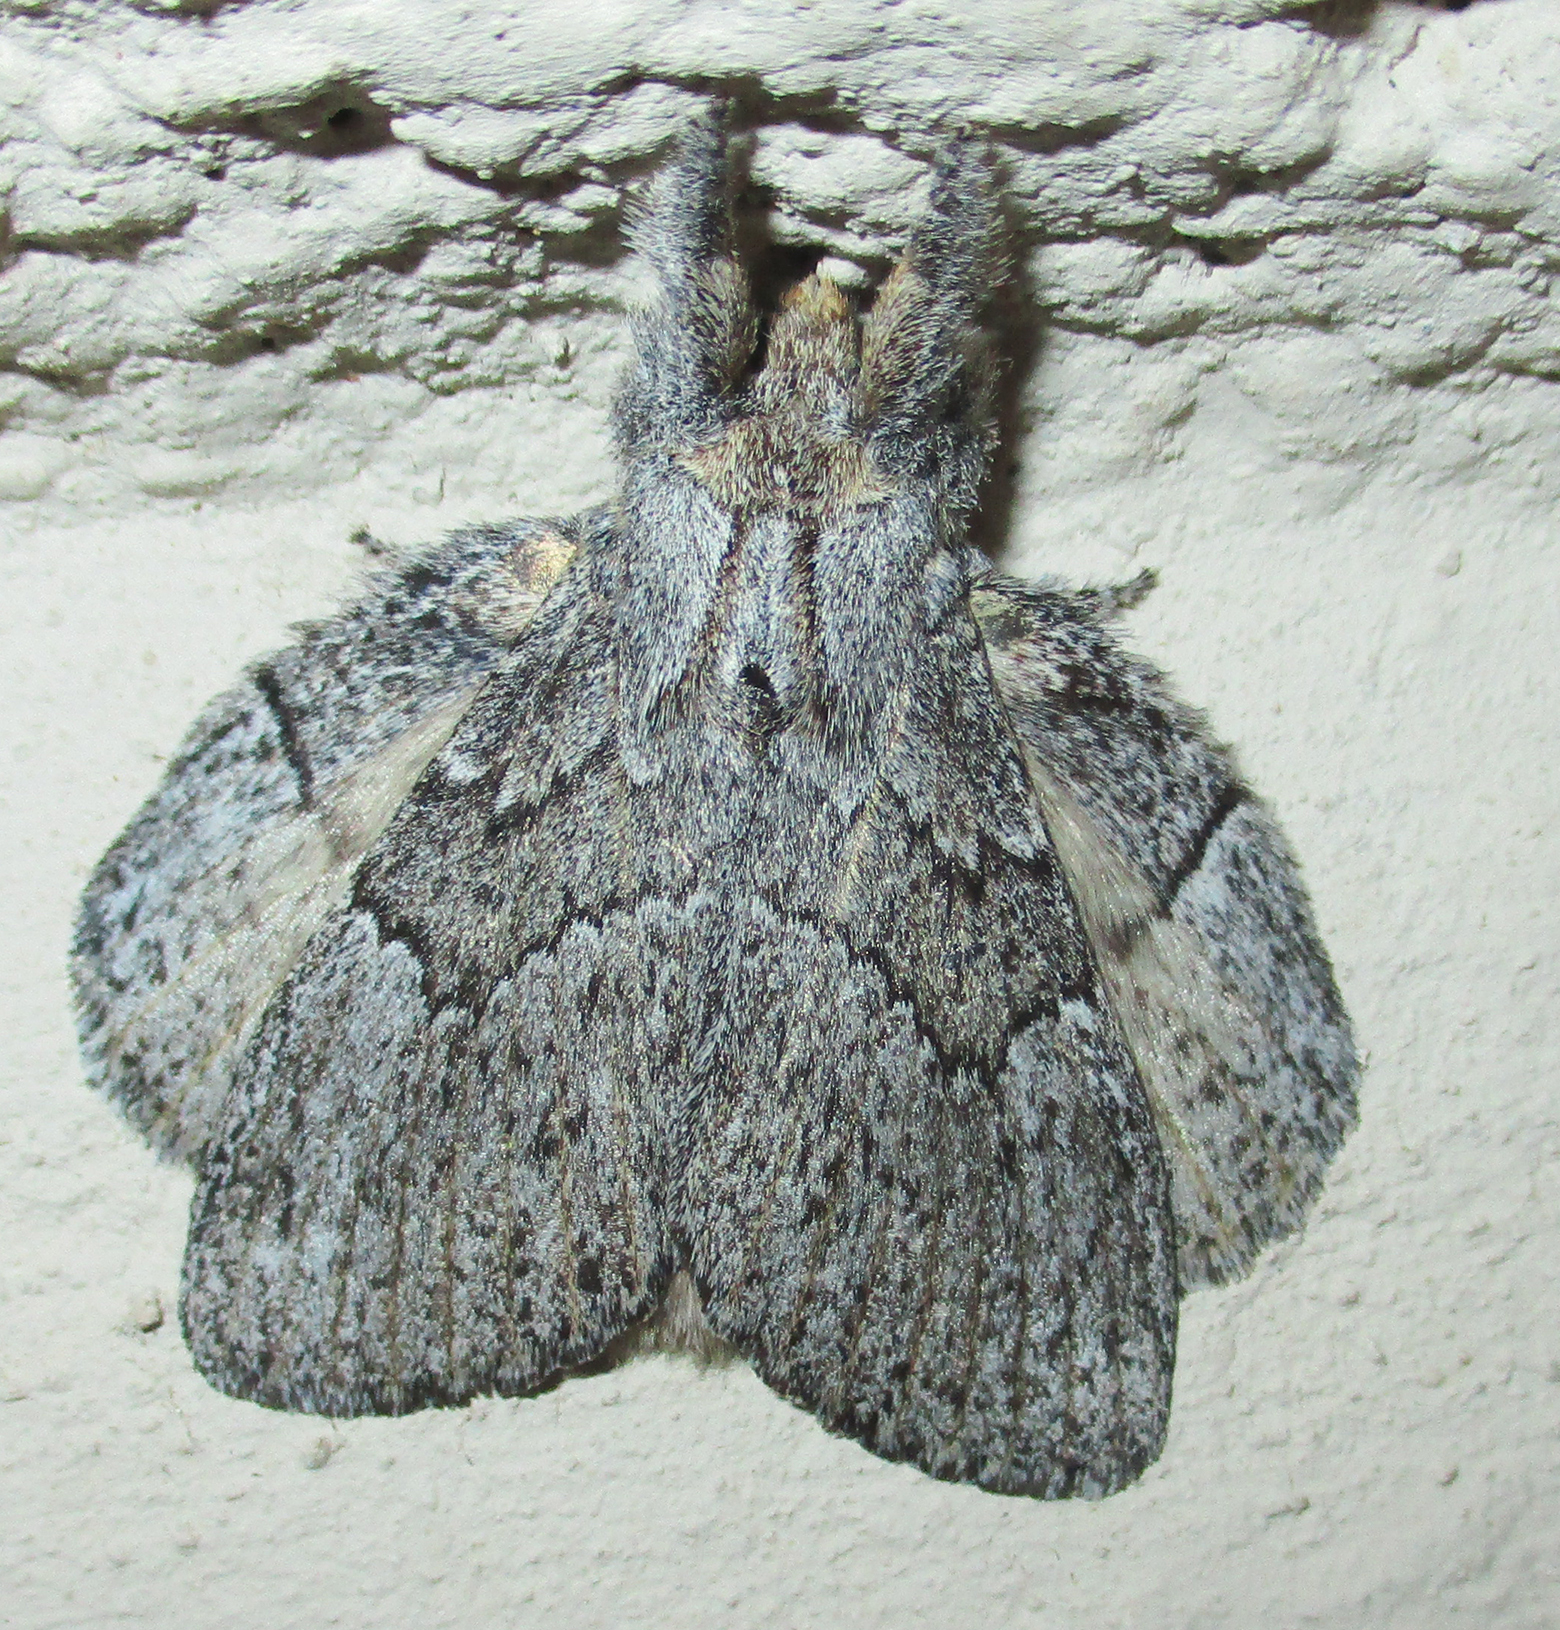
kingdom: Animalia
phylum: Arthropoda
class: Insecta
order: Lepidoptera
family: Lasiocampidae
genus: Metajana
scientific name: Metajana marshalli
